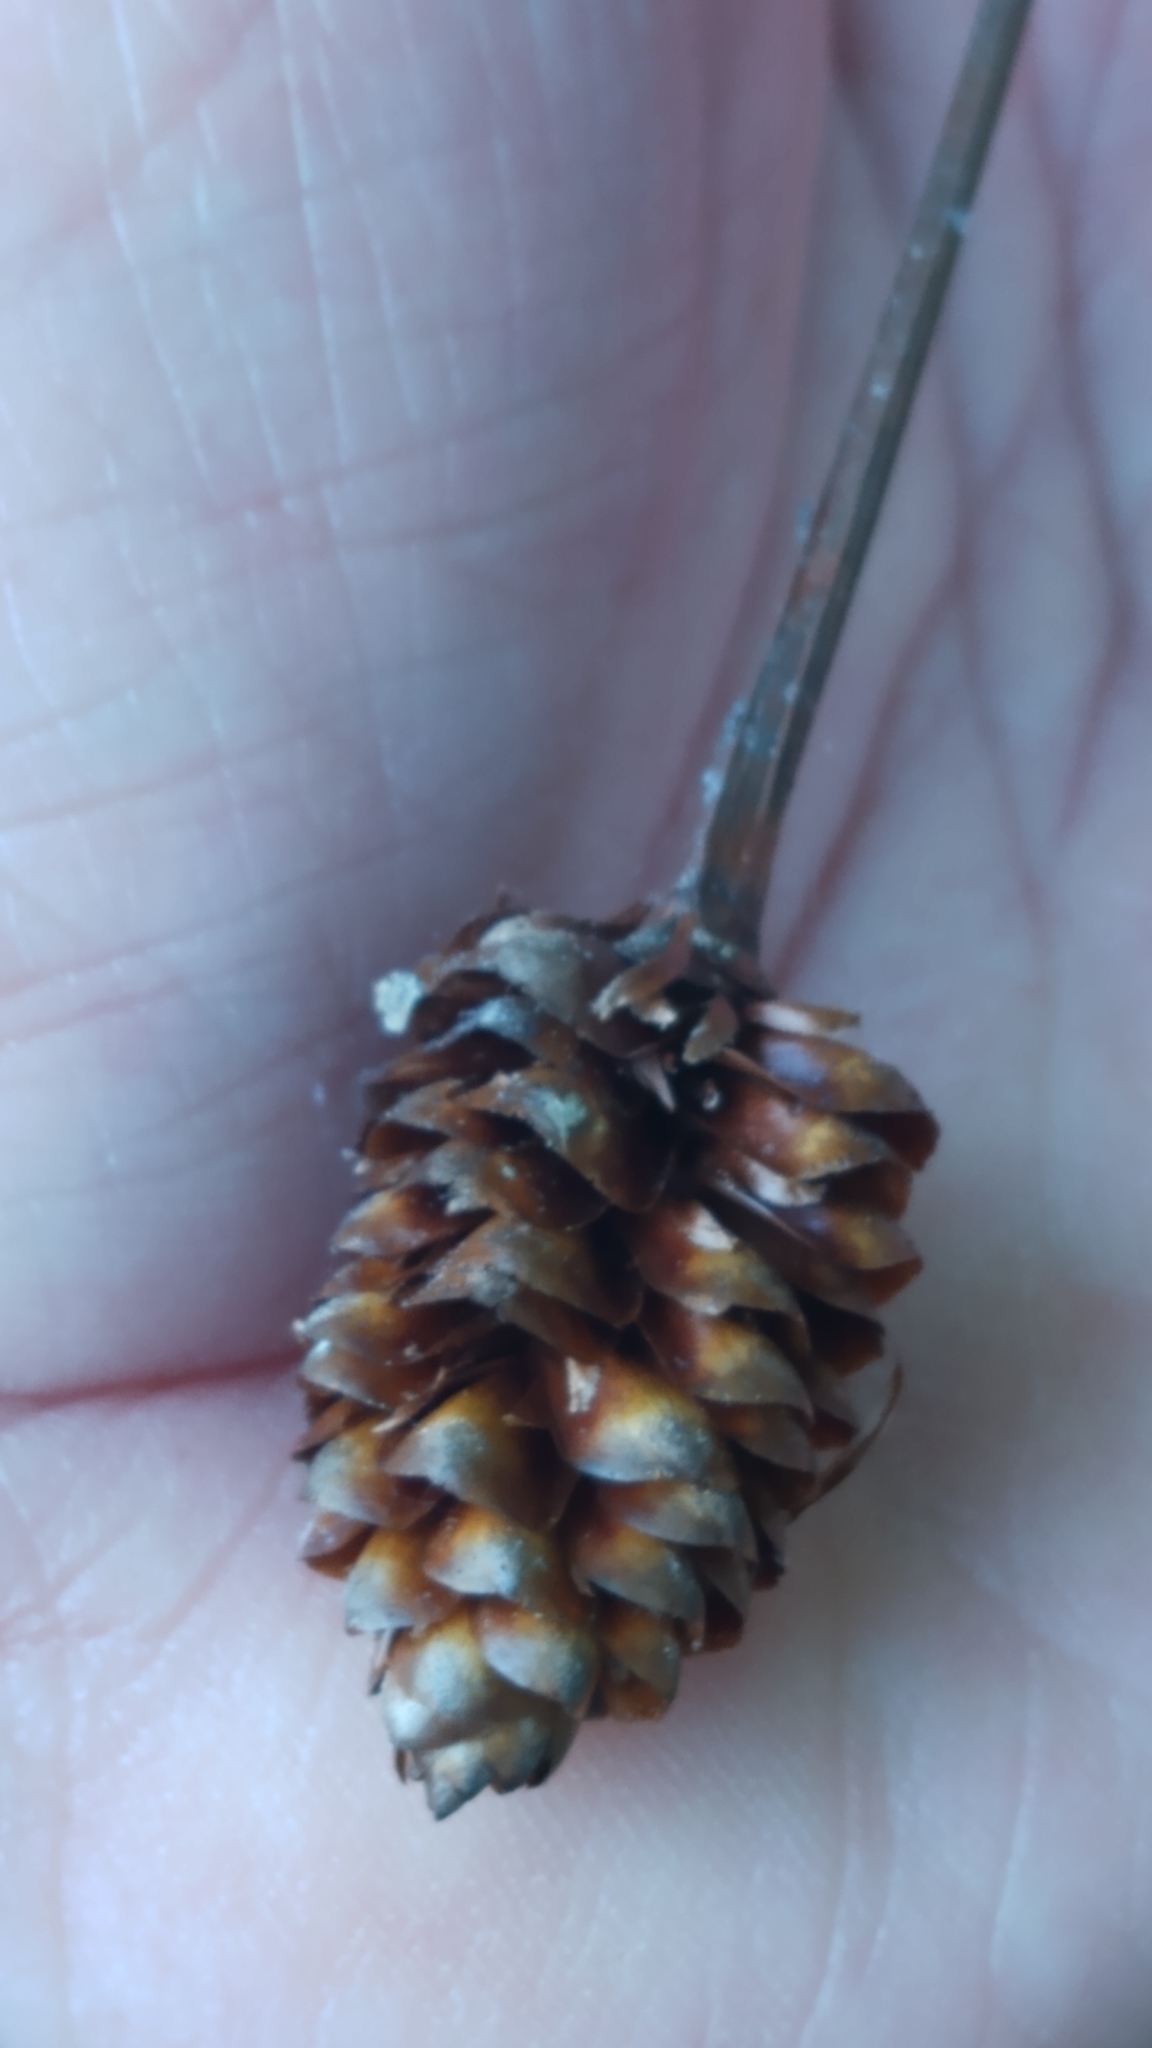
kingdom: Plantae
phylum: Tracheophyta
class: Liliopsida
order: Poales
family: Xyridaceae
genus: Xyris
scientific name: Xyris platylepis
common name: Tall yelloweyed grass
